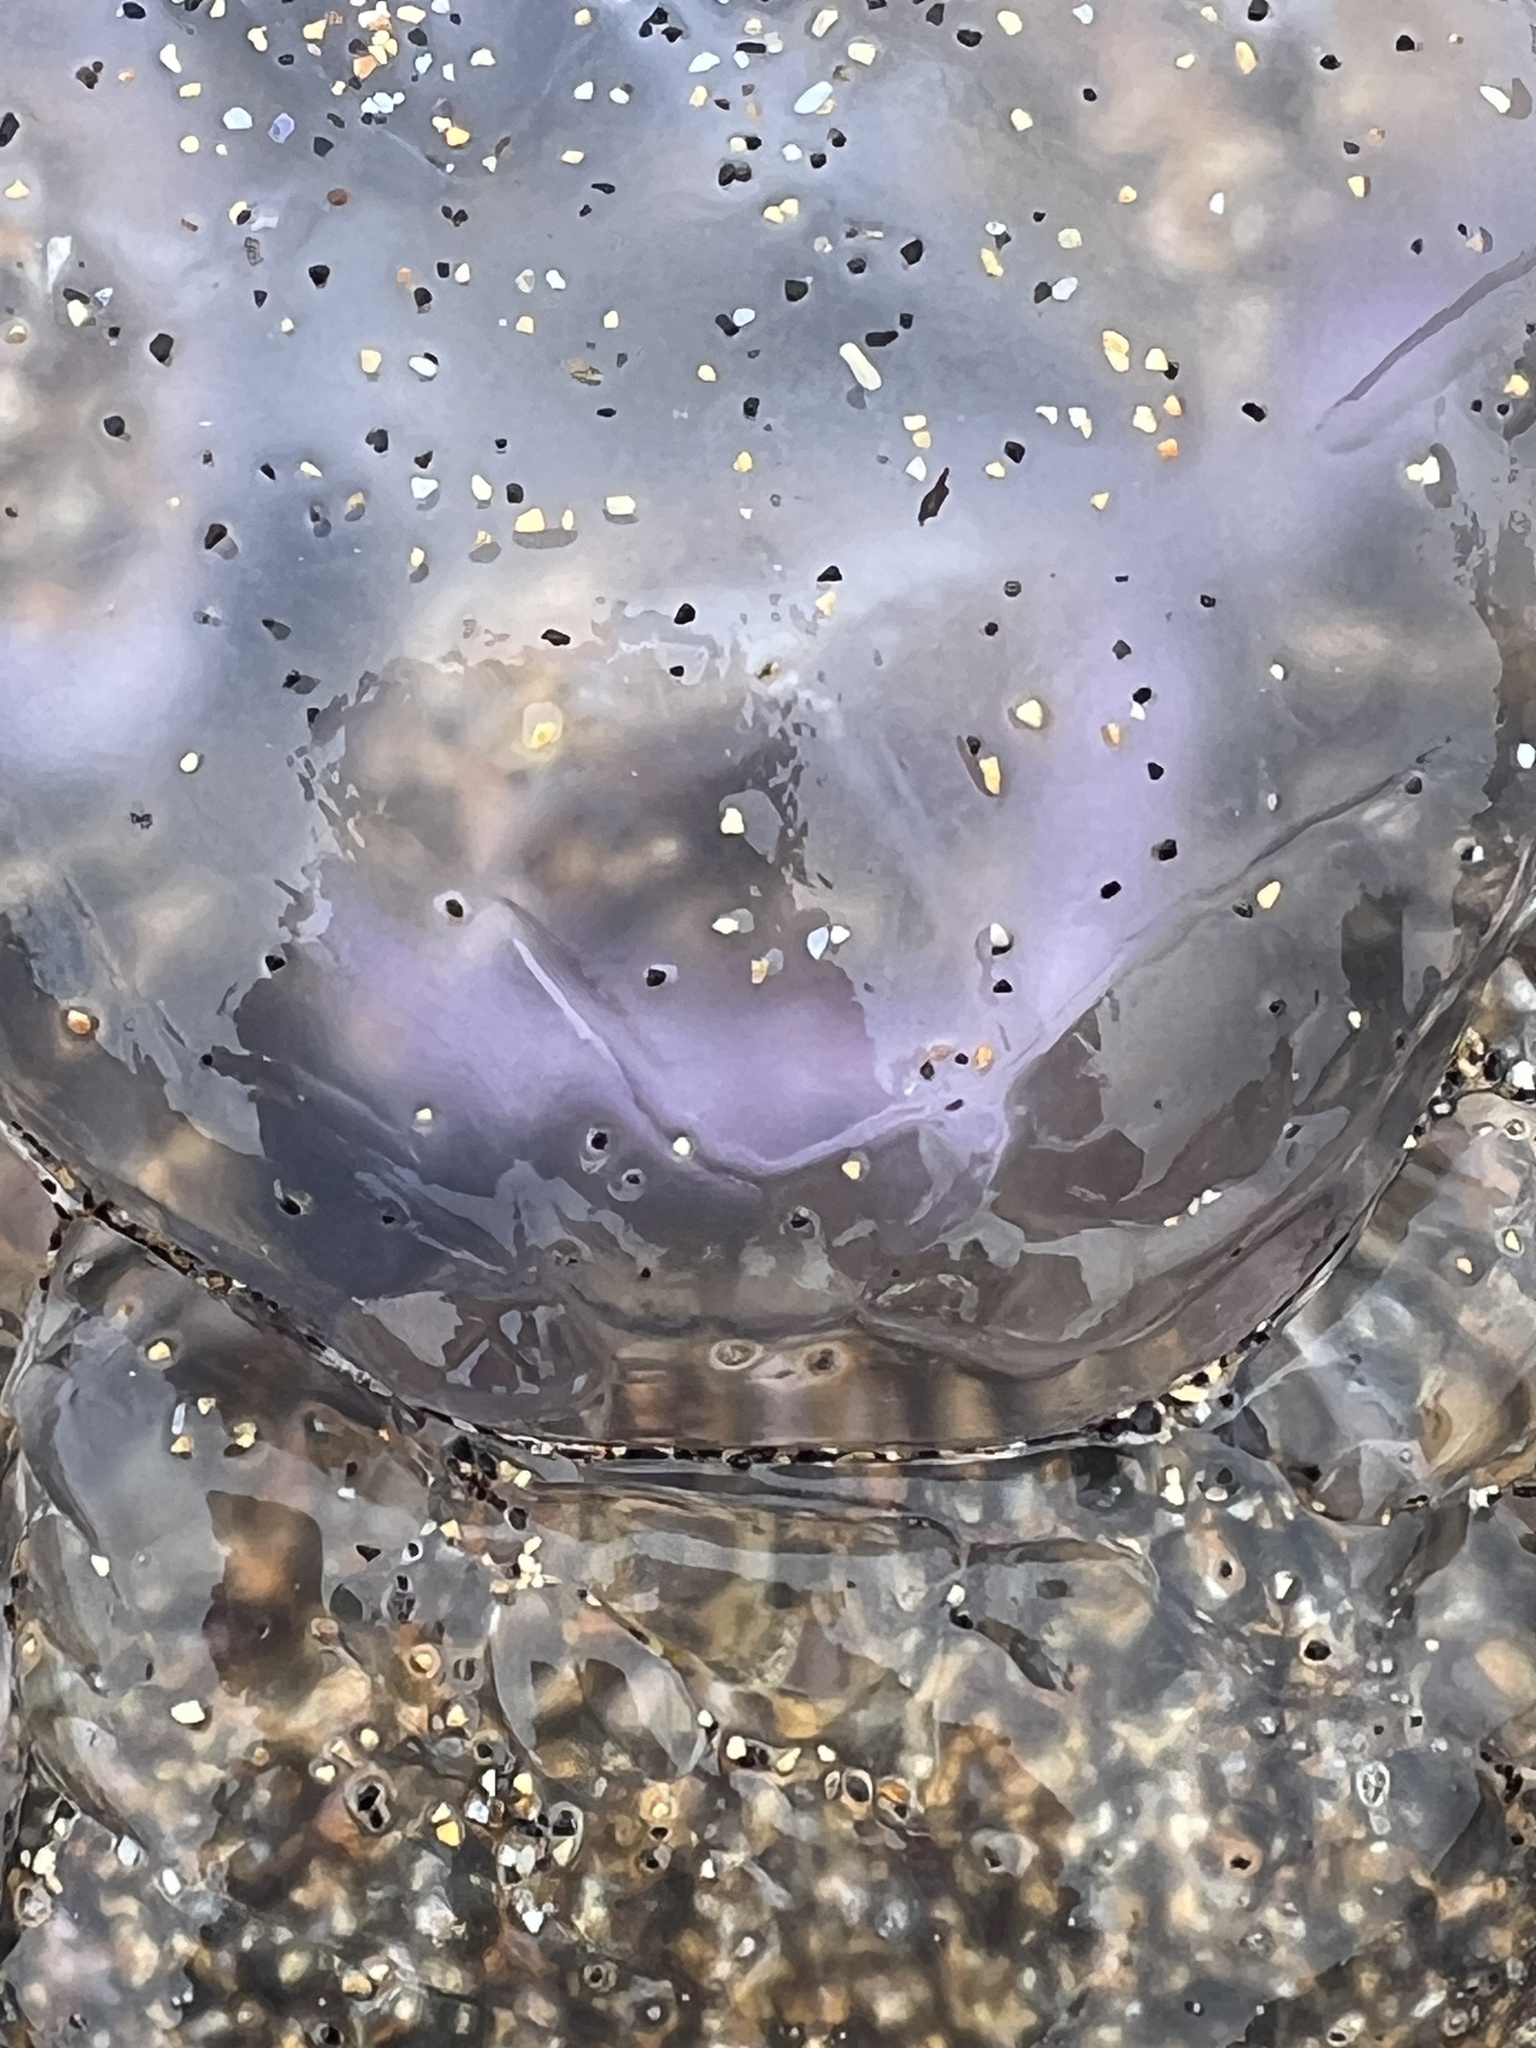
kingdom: Animalia
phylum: Cnidaria
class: Scyphozoa
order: Semaeostomeae
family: Ulmaridae
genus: Aurelia
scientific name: Aurelia aurita
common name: Moon jellyfish
